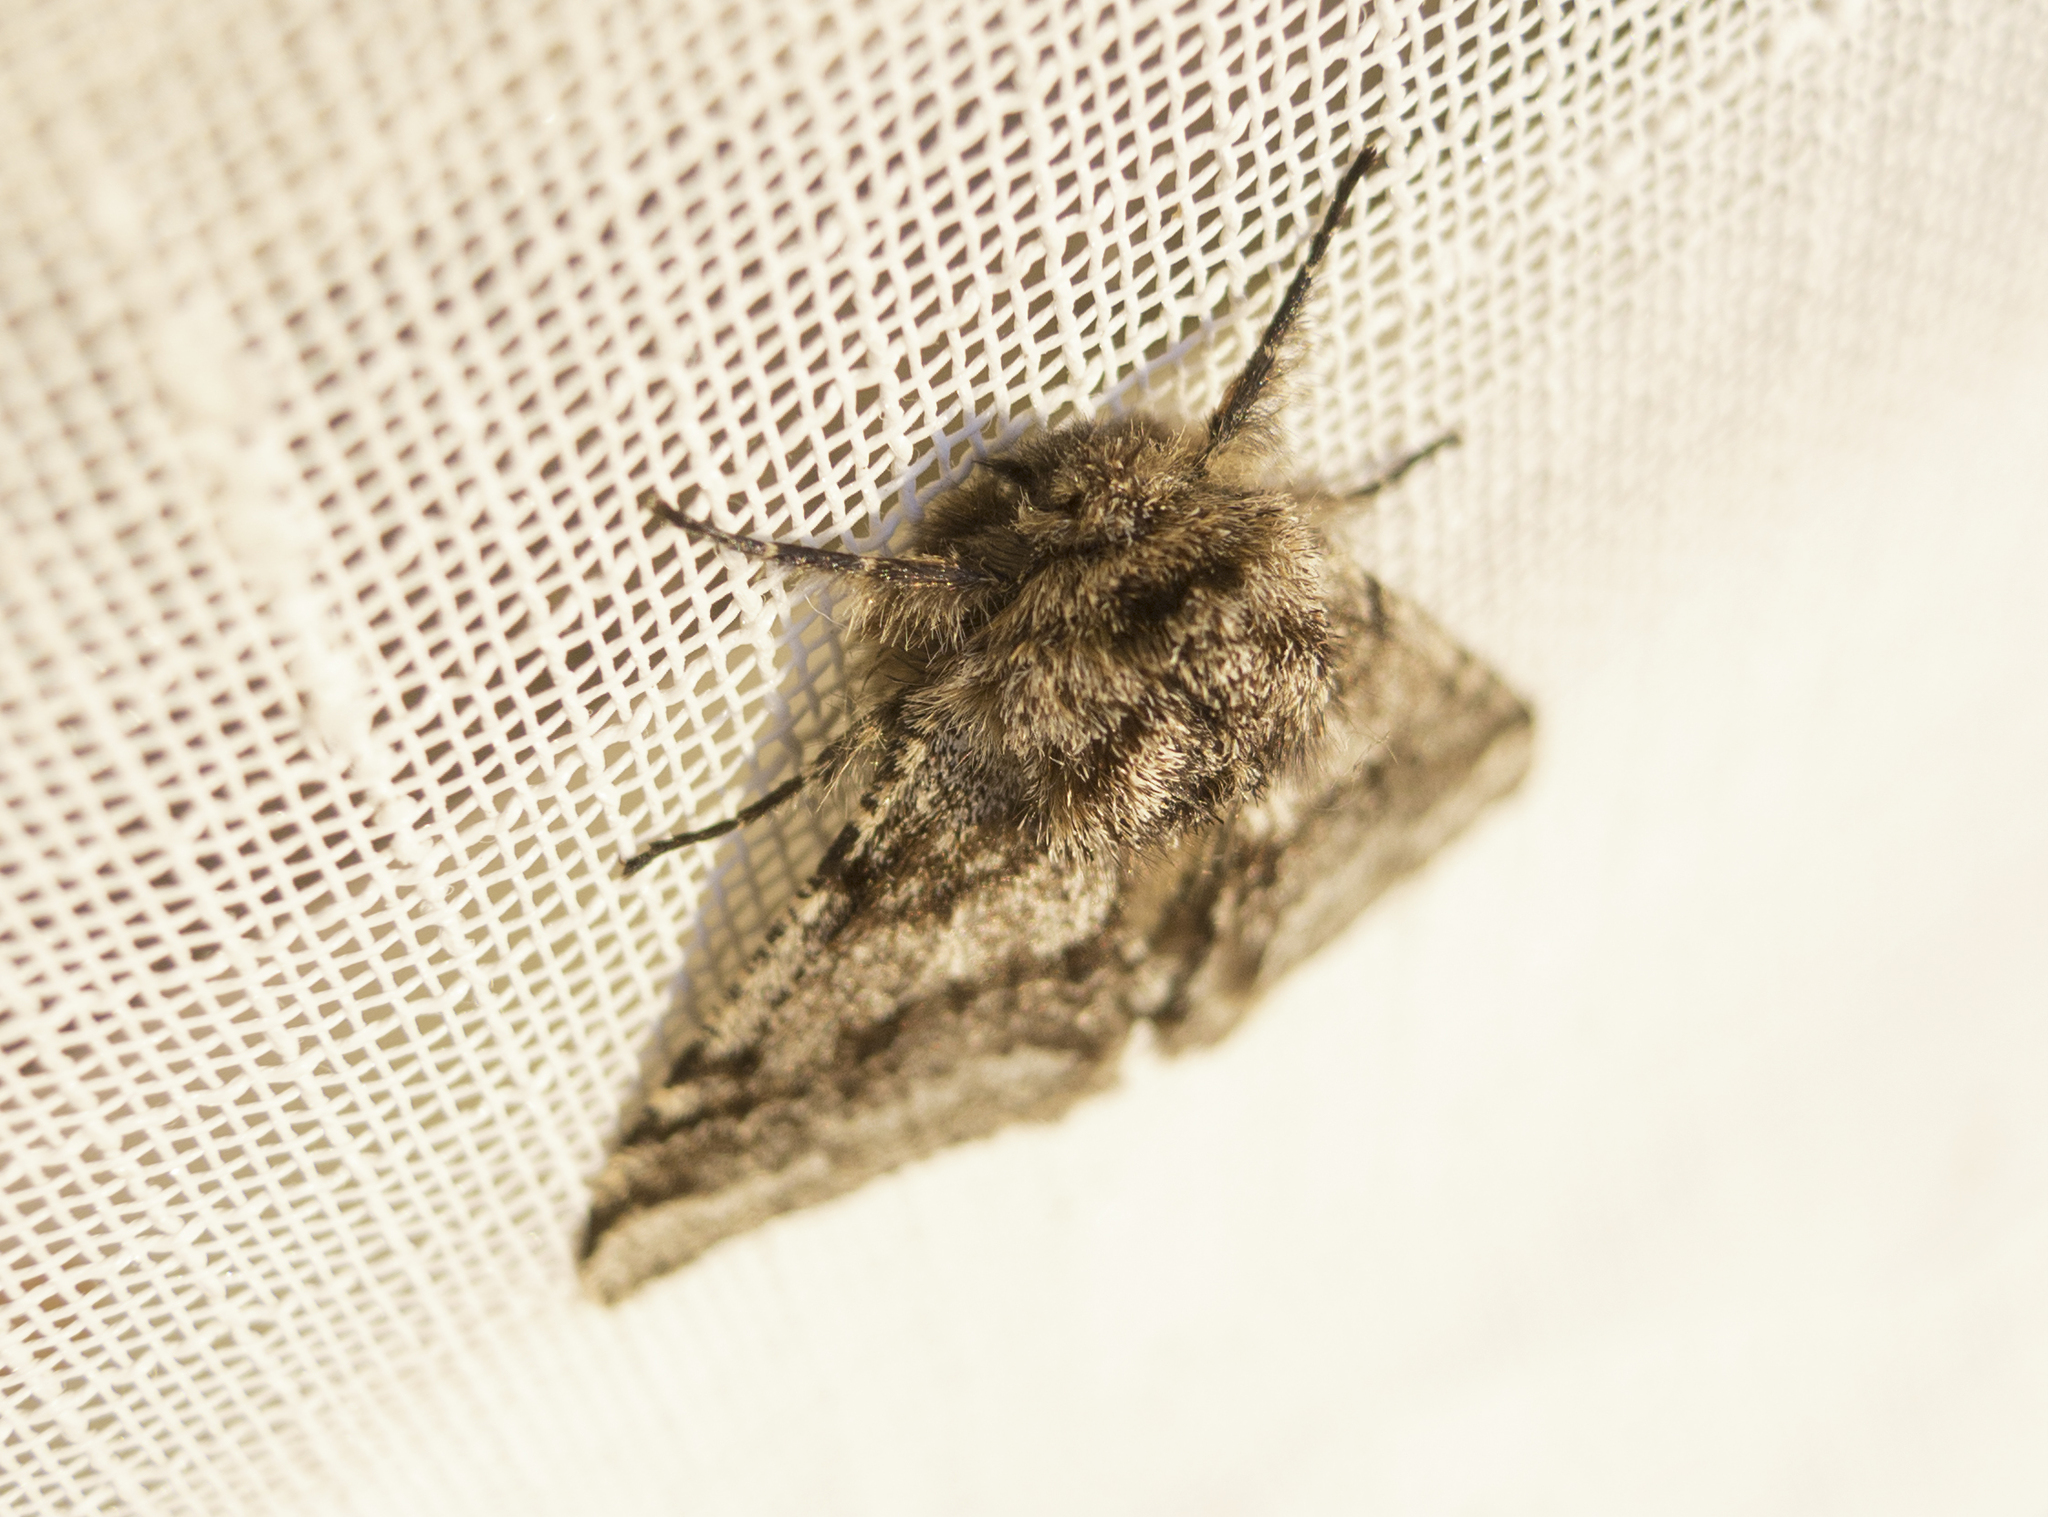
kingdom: Animalia
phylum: Arthropoda
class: Insecta
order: Lepidoptera
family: Geometridae
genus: Lycia
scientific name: Lycia hirtaria
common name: Brindled beauty
